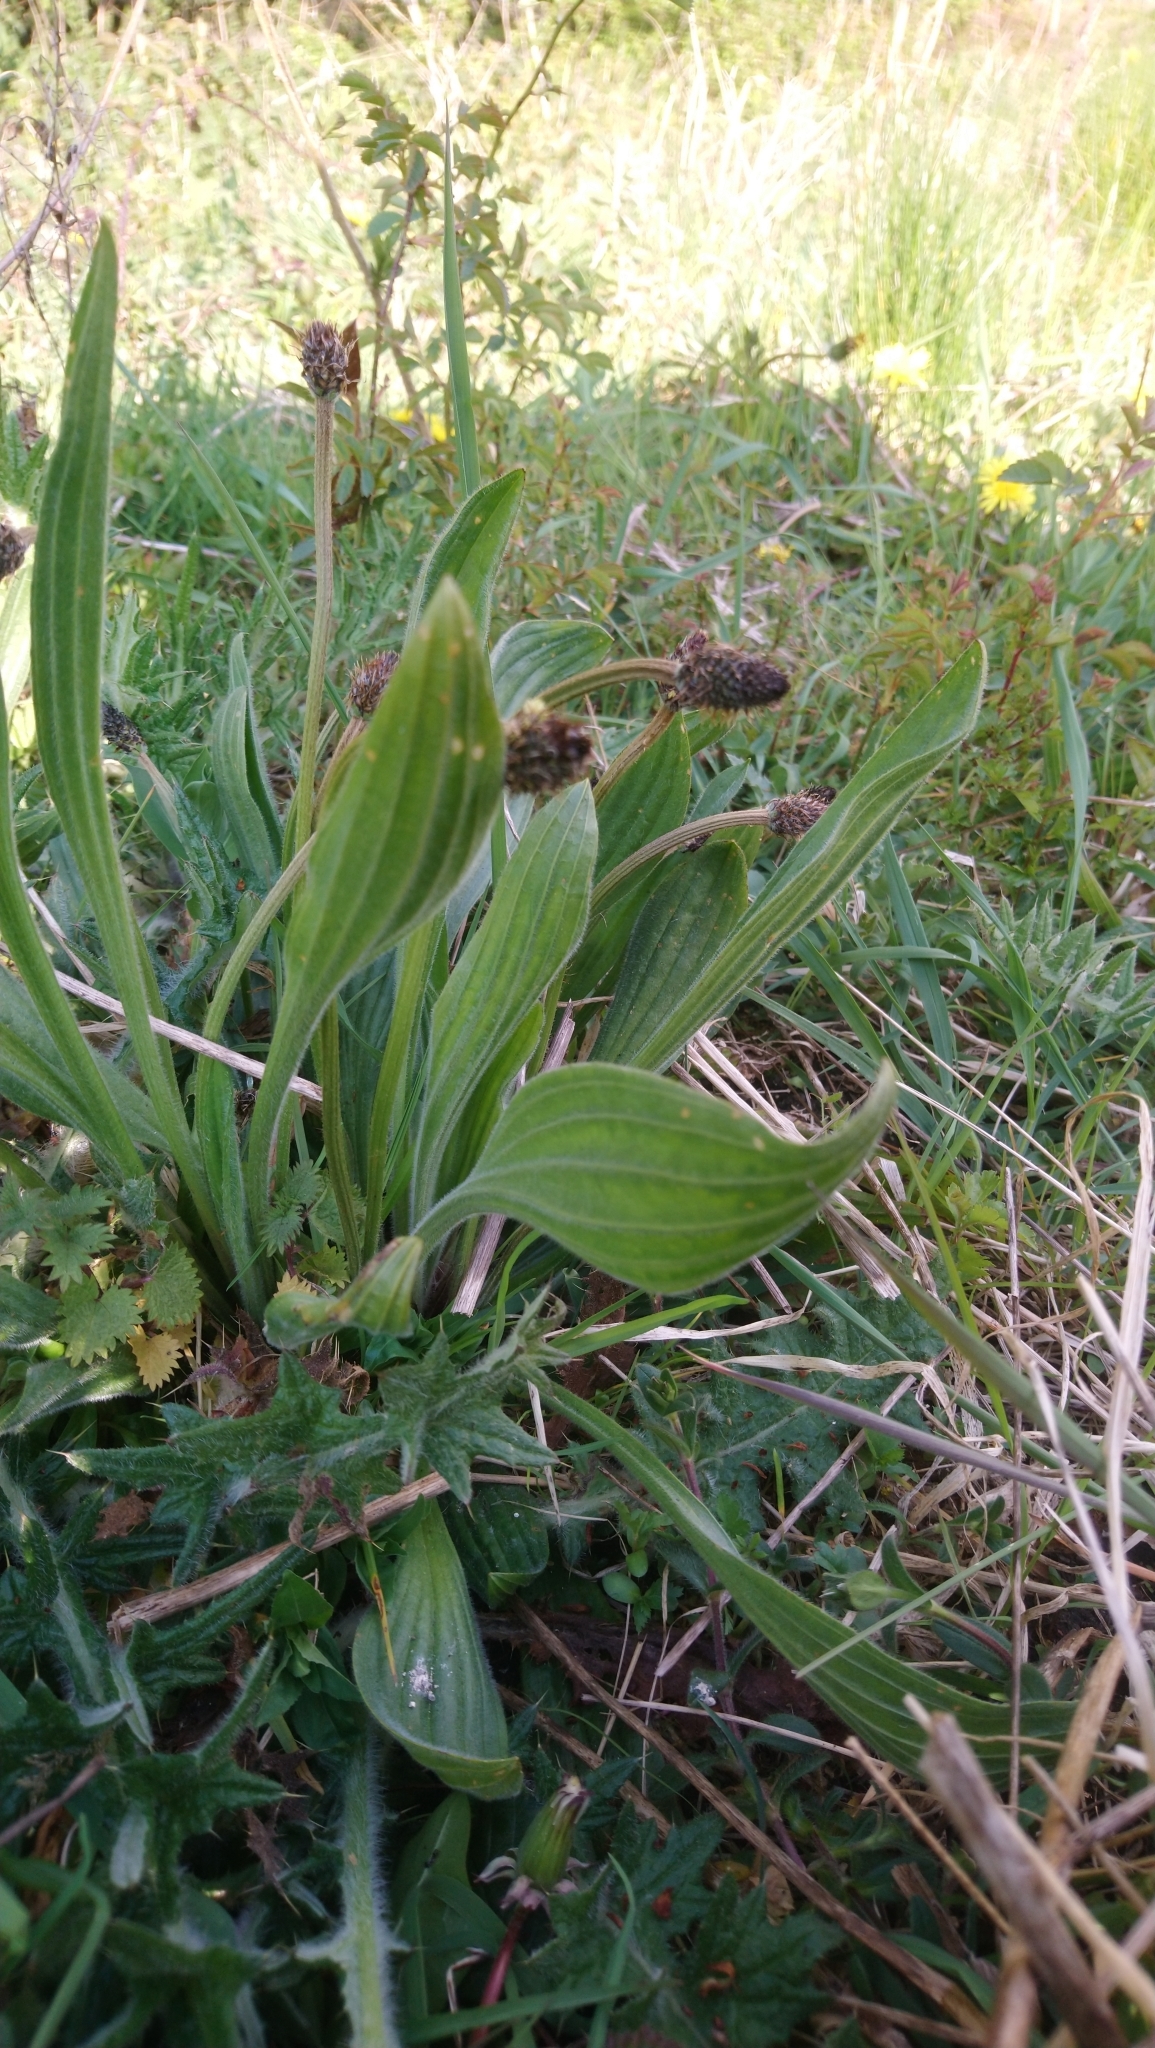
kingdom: Plantae
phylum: Tracheophyta
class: Magnoliopsida
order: Lamiales
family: Plantaginaceae
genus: Plantago
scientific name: Plantago lanceolata
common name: Ribwort plantain
